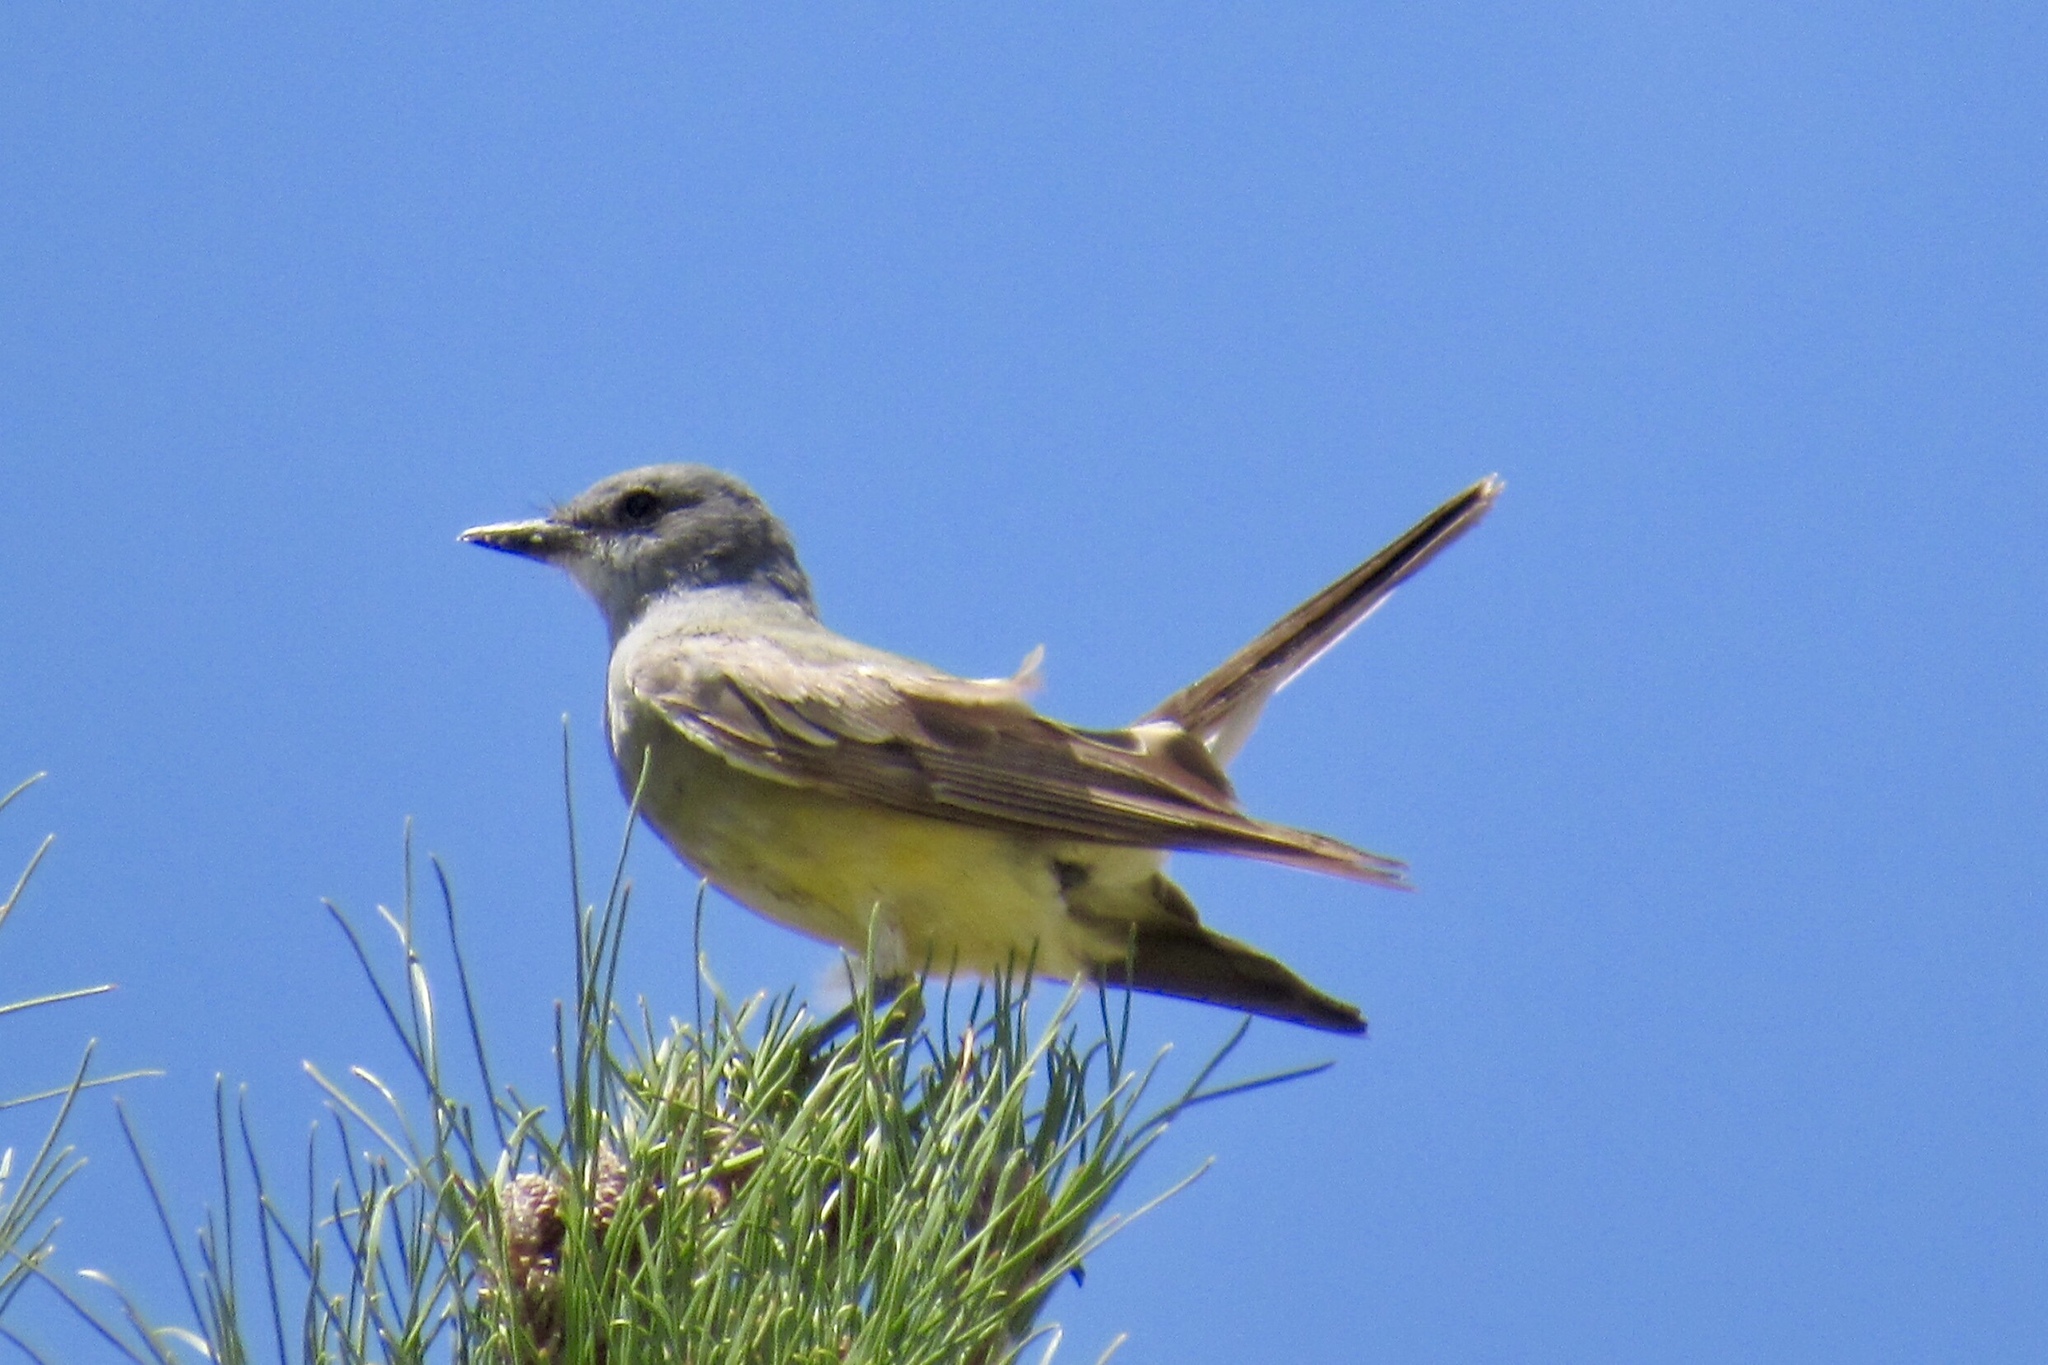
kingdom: Animalia
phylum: Chordata
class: Aves
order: Passeriformes
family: Tyrannidae
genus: Tyrannus
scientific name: Tyrannus vociferans
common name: Cassin's kingbird
